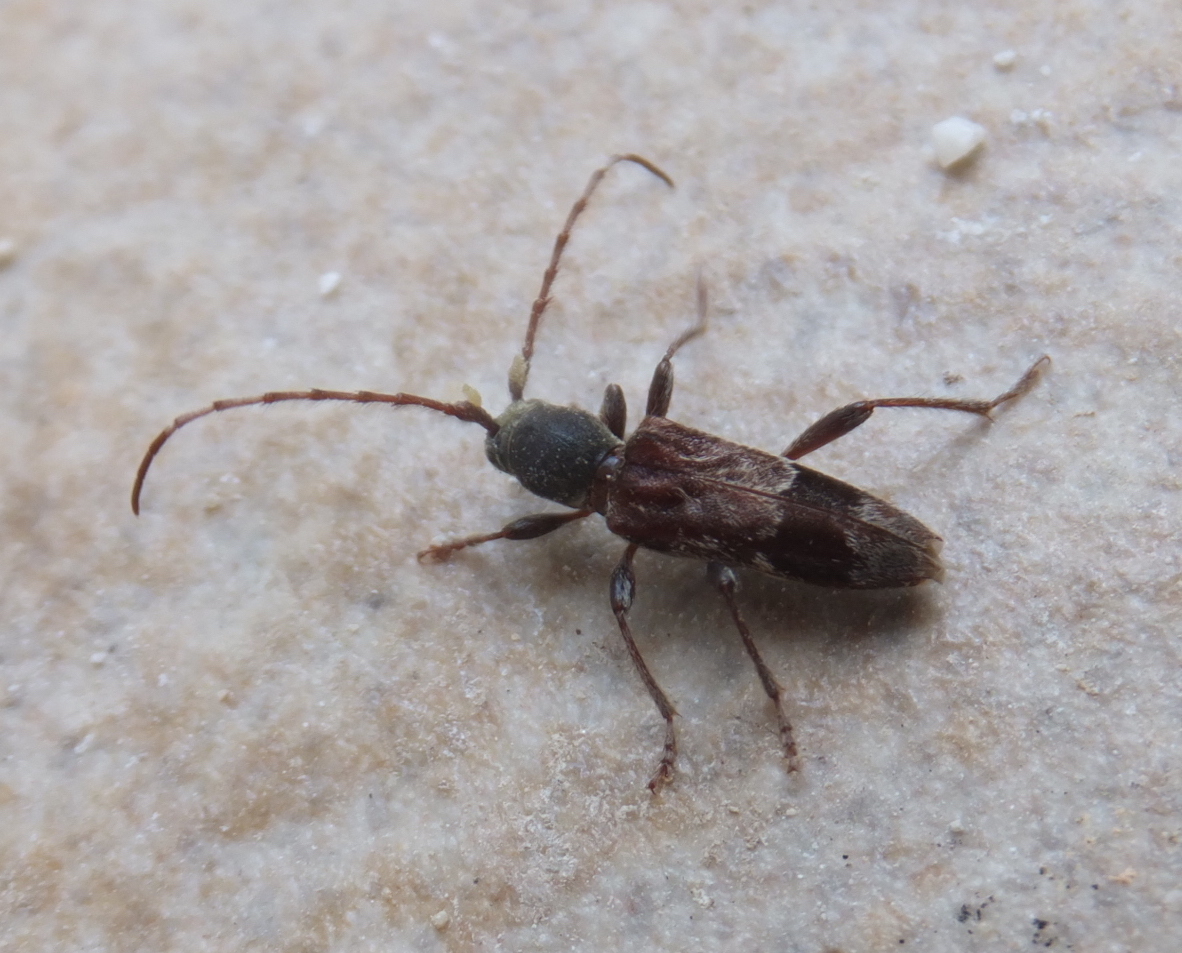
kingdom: Animalia
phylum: Arthropoda
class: Insecta
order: Coleoptera
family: Cerambycidae
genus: Anaglyptus
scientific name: Anaglyptus gibbosus
